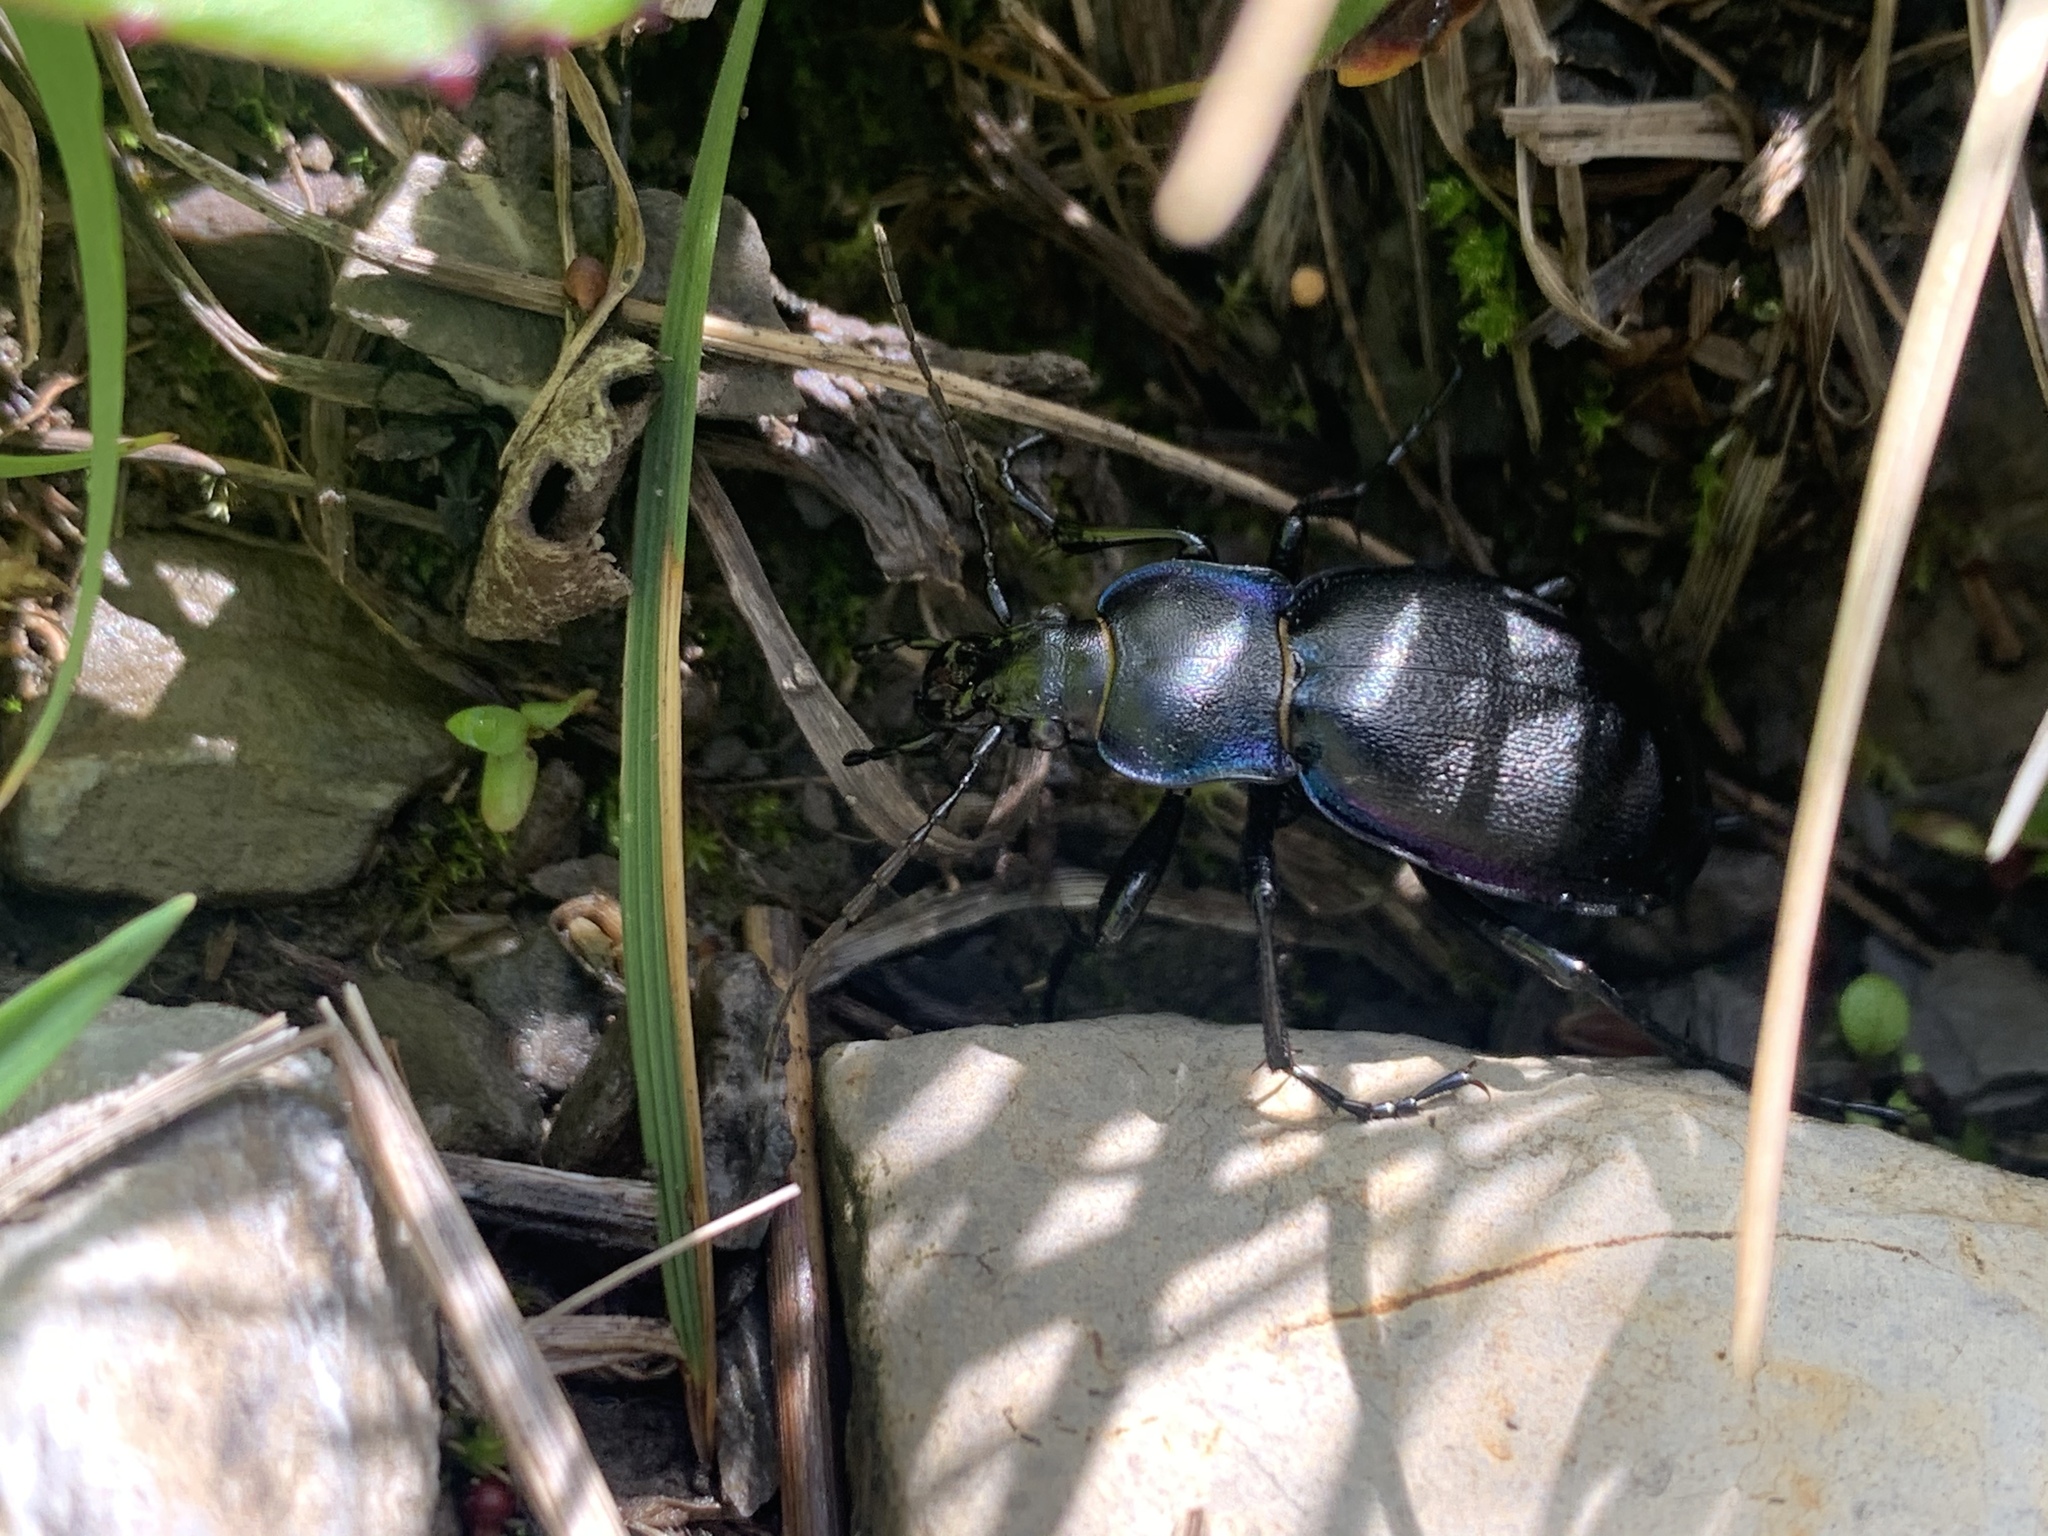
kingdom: Animalia
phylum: Arthropoda
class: Insecta
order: Coleoptera
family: Carabidae
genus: Carabus
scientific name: Carabus violaceus
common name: Violet ground beetle
